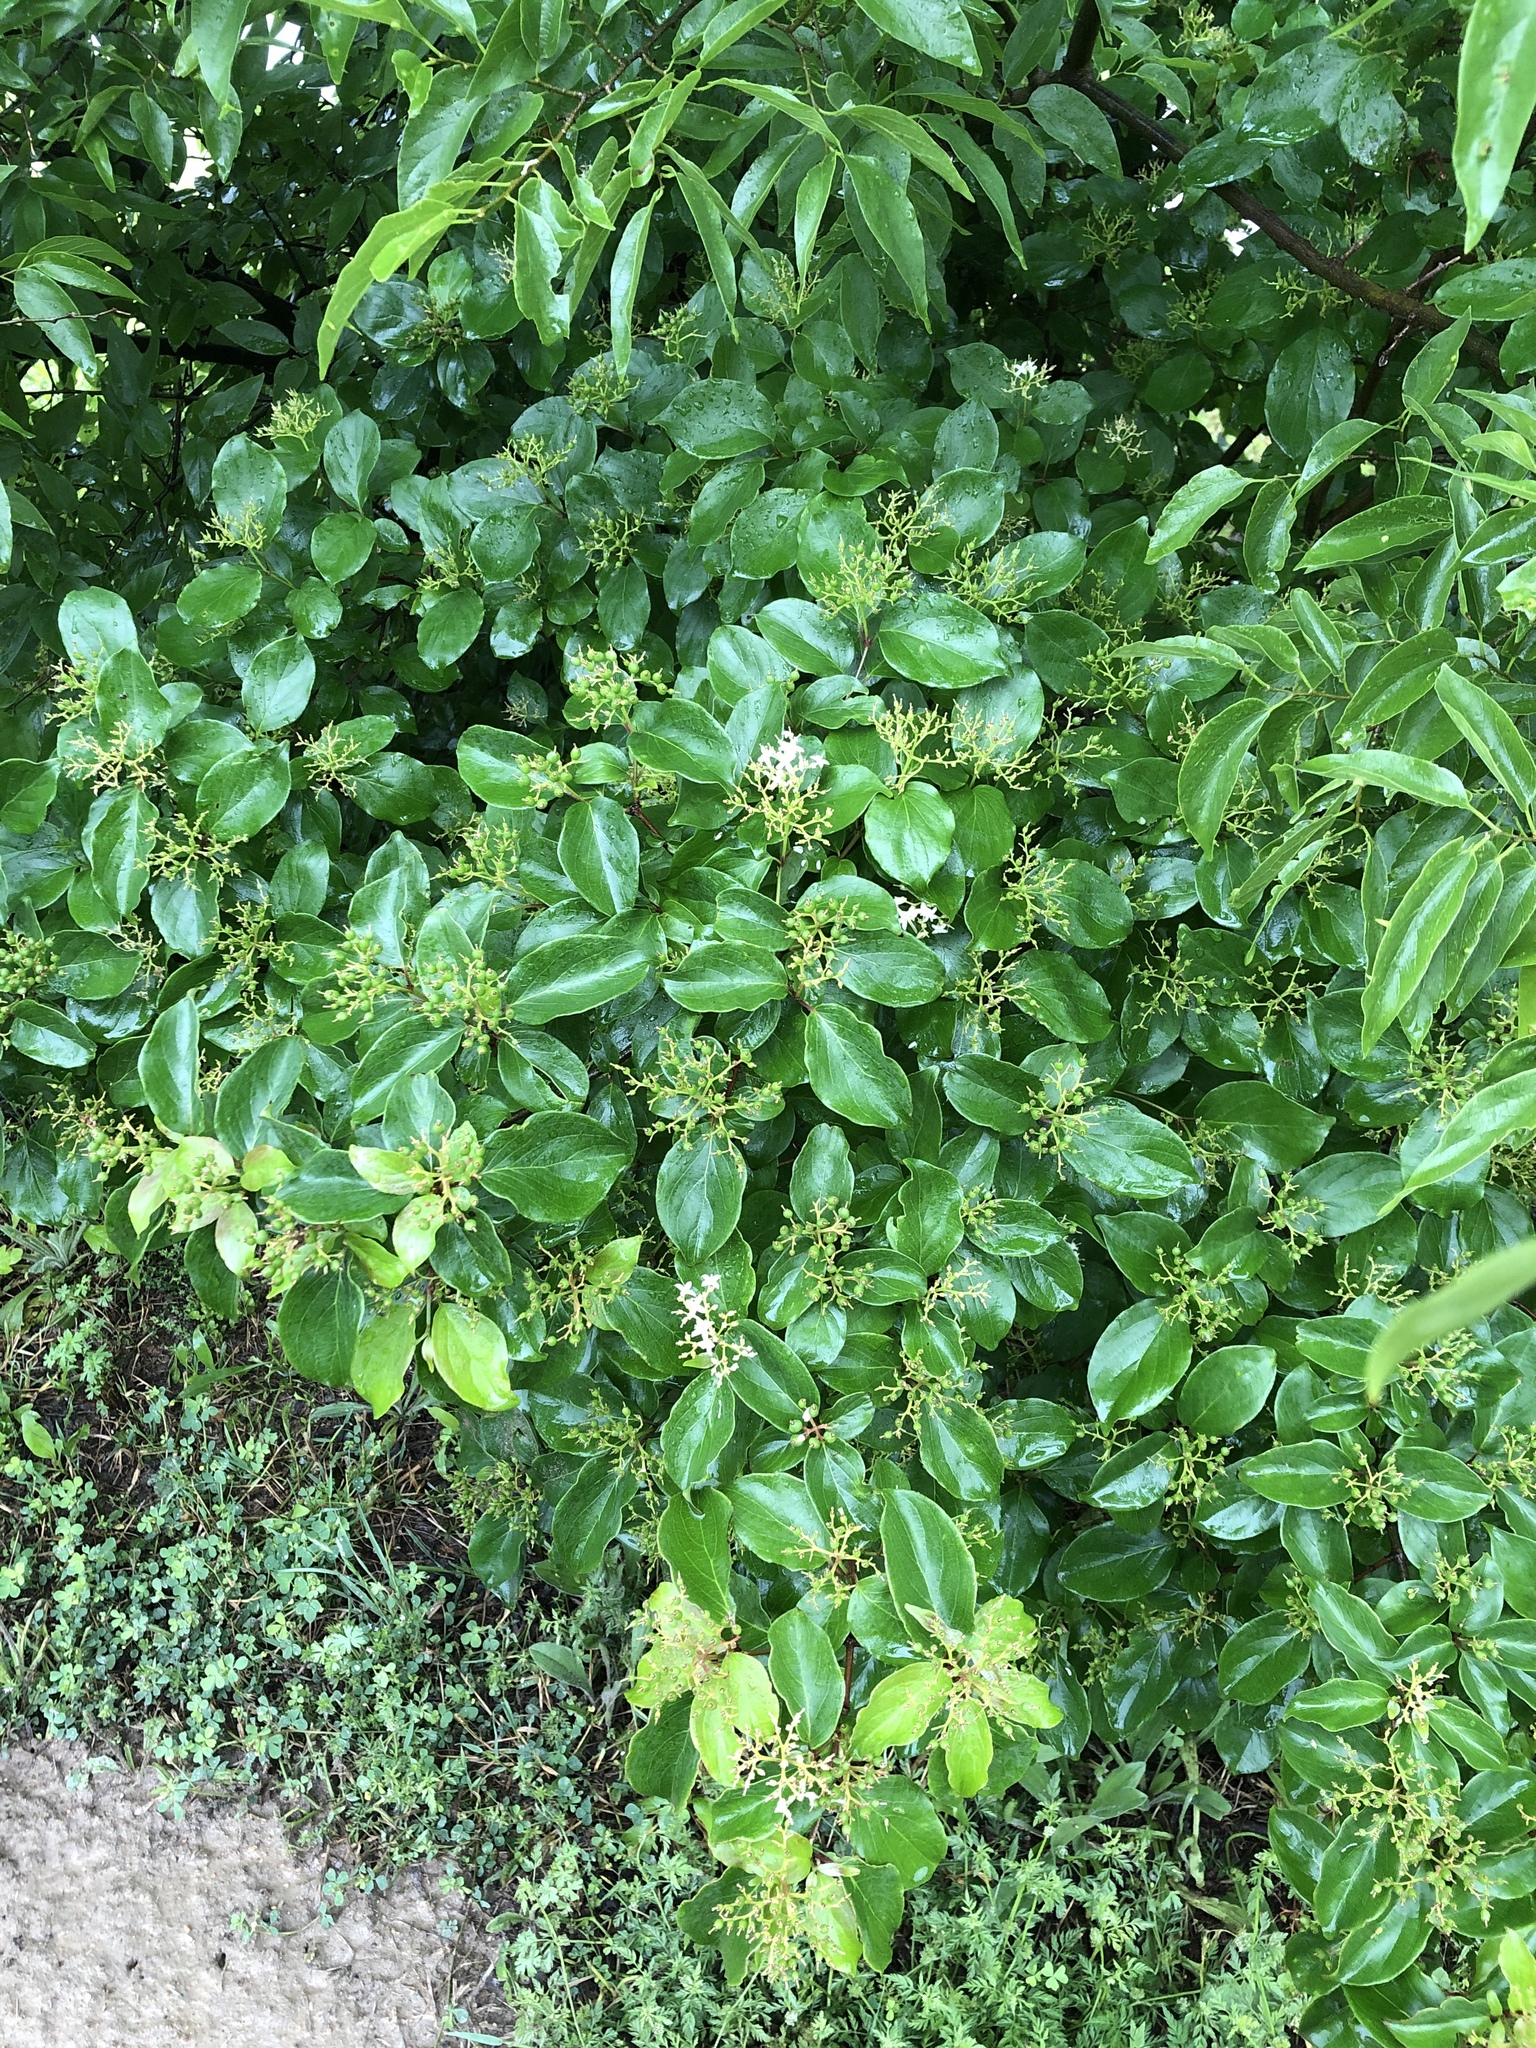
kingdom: Plantae
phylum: Tracheophyta
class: Magnoliopsida
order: Cornales
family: Cornaceae
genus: Cornus
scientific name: Cornus drummondii
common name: Rough-leaf dogwood
